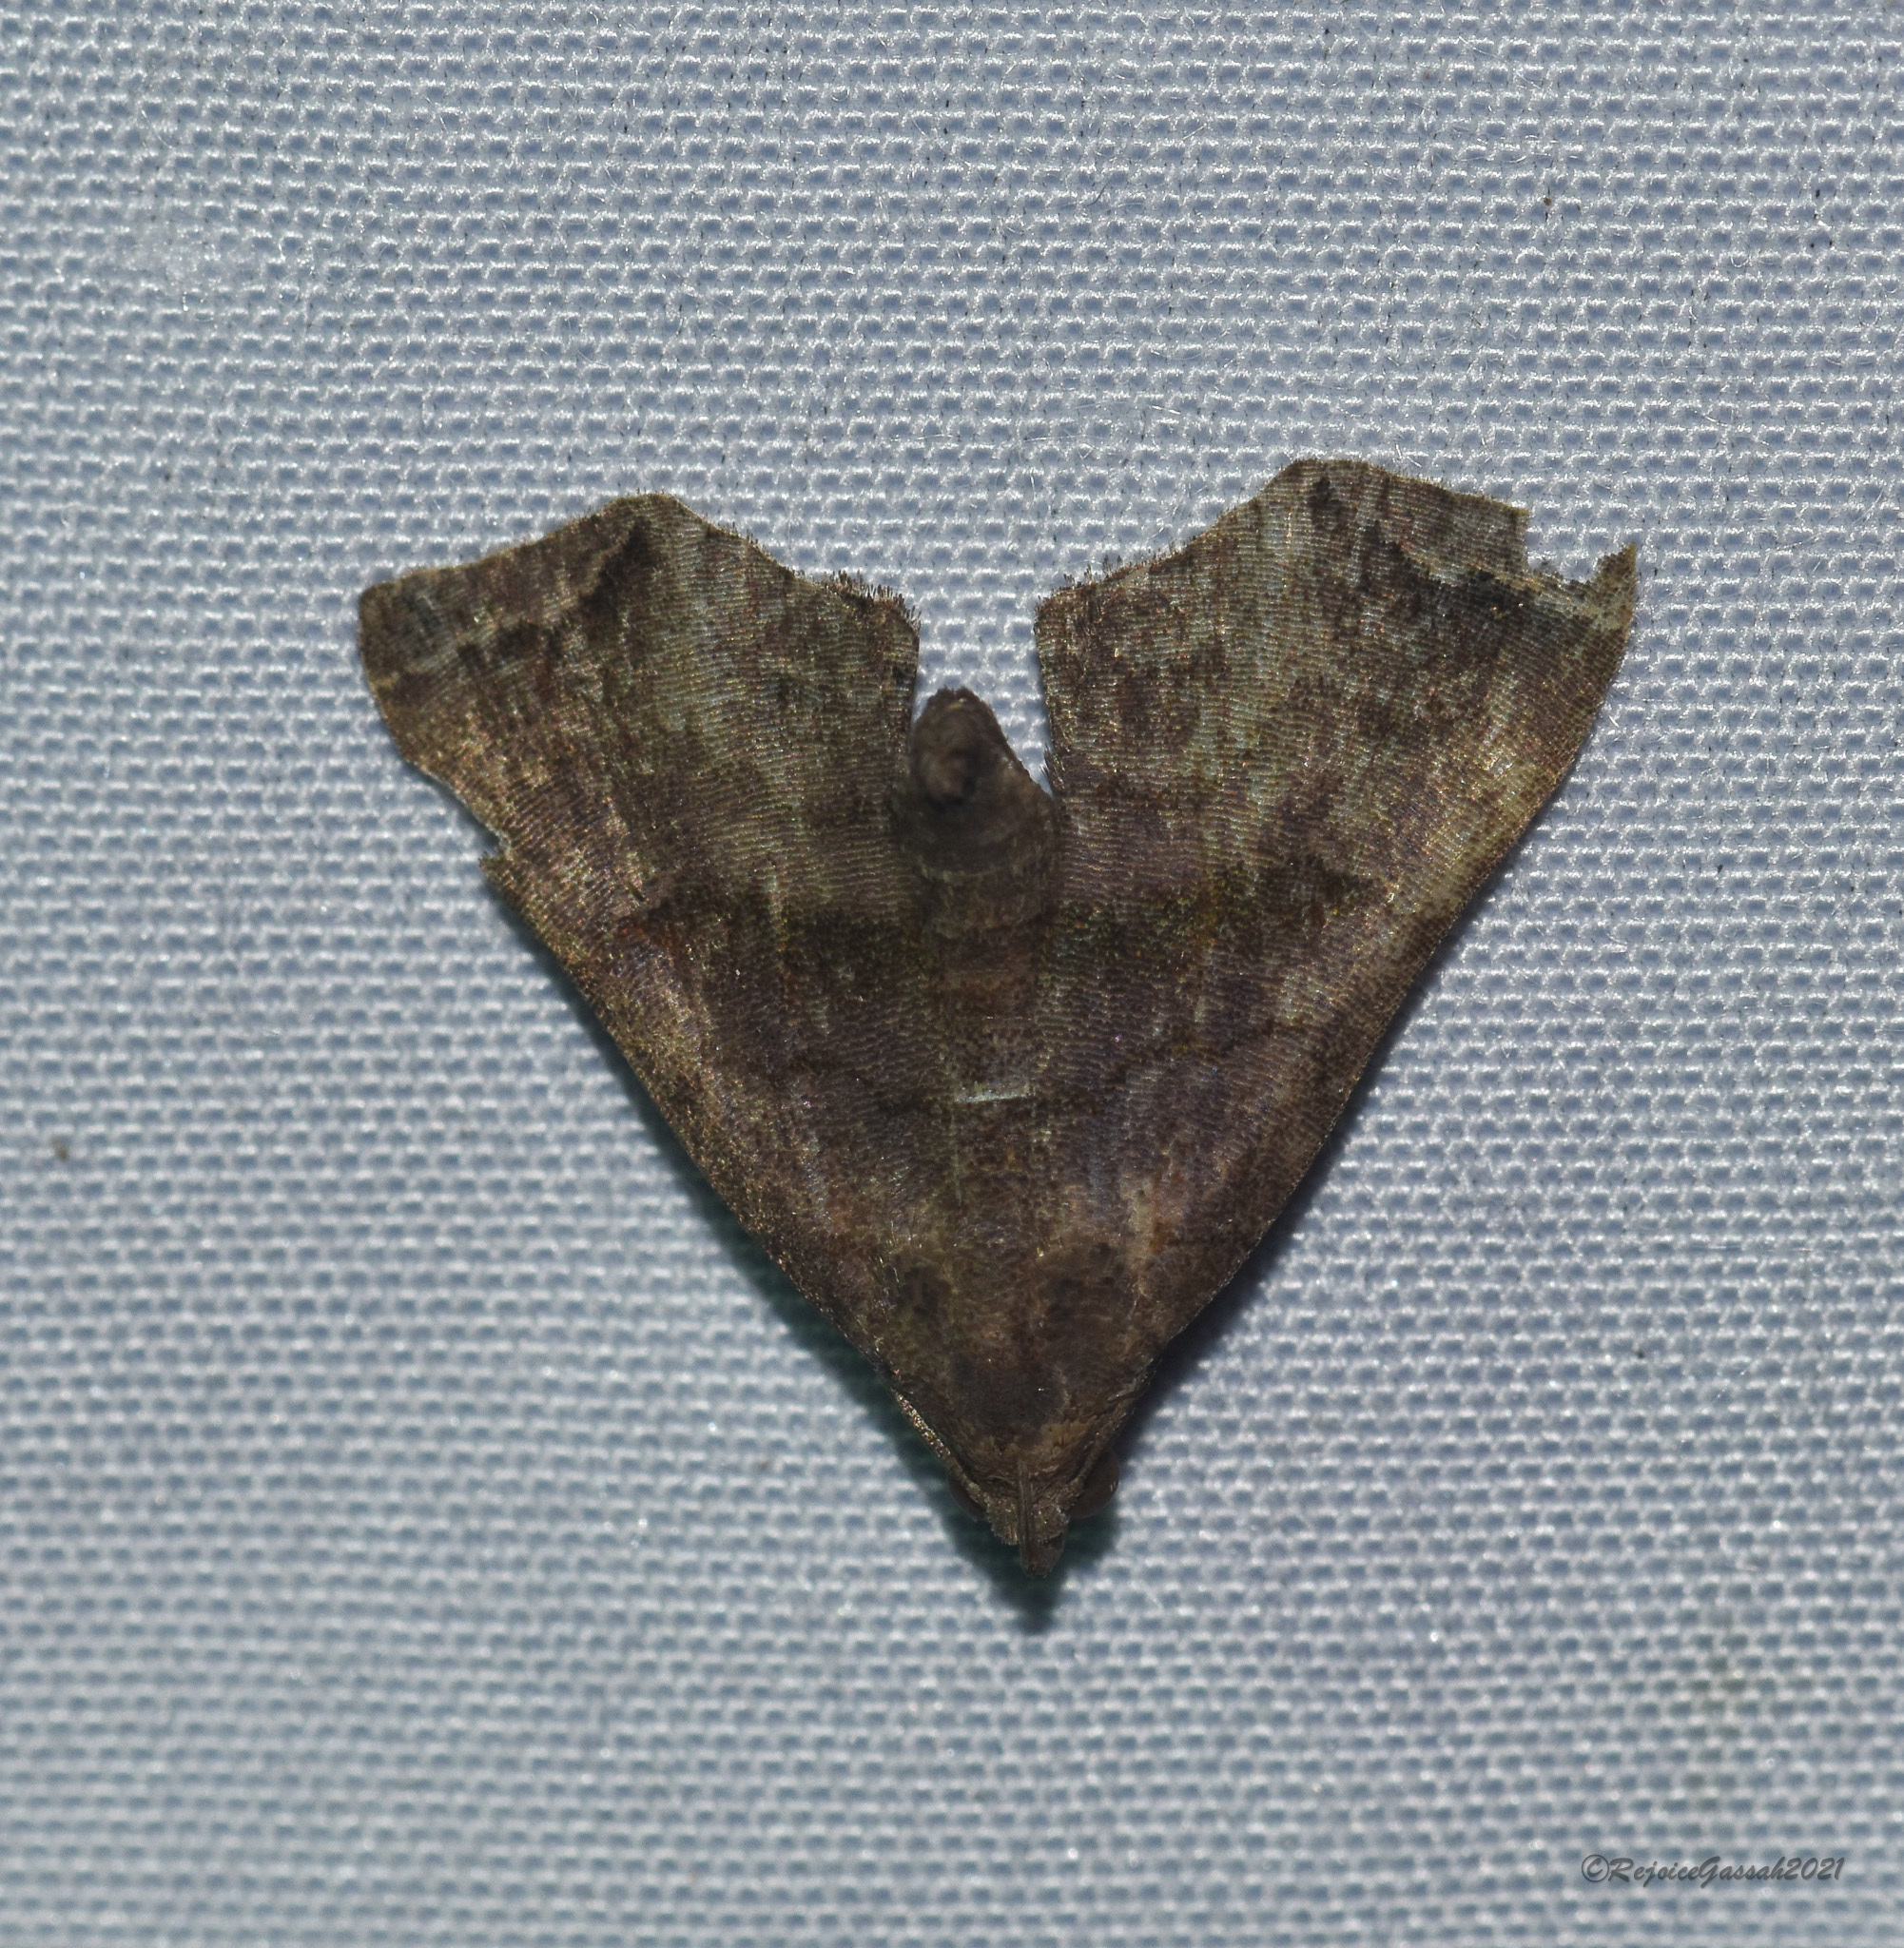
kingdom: Animalia
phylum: Arthropoda
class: Insecta
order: Lepidoptera
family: Erebidae
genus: Polypogon
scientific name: Polypogon biasalis
